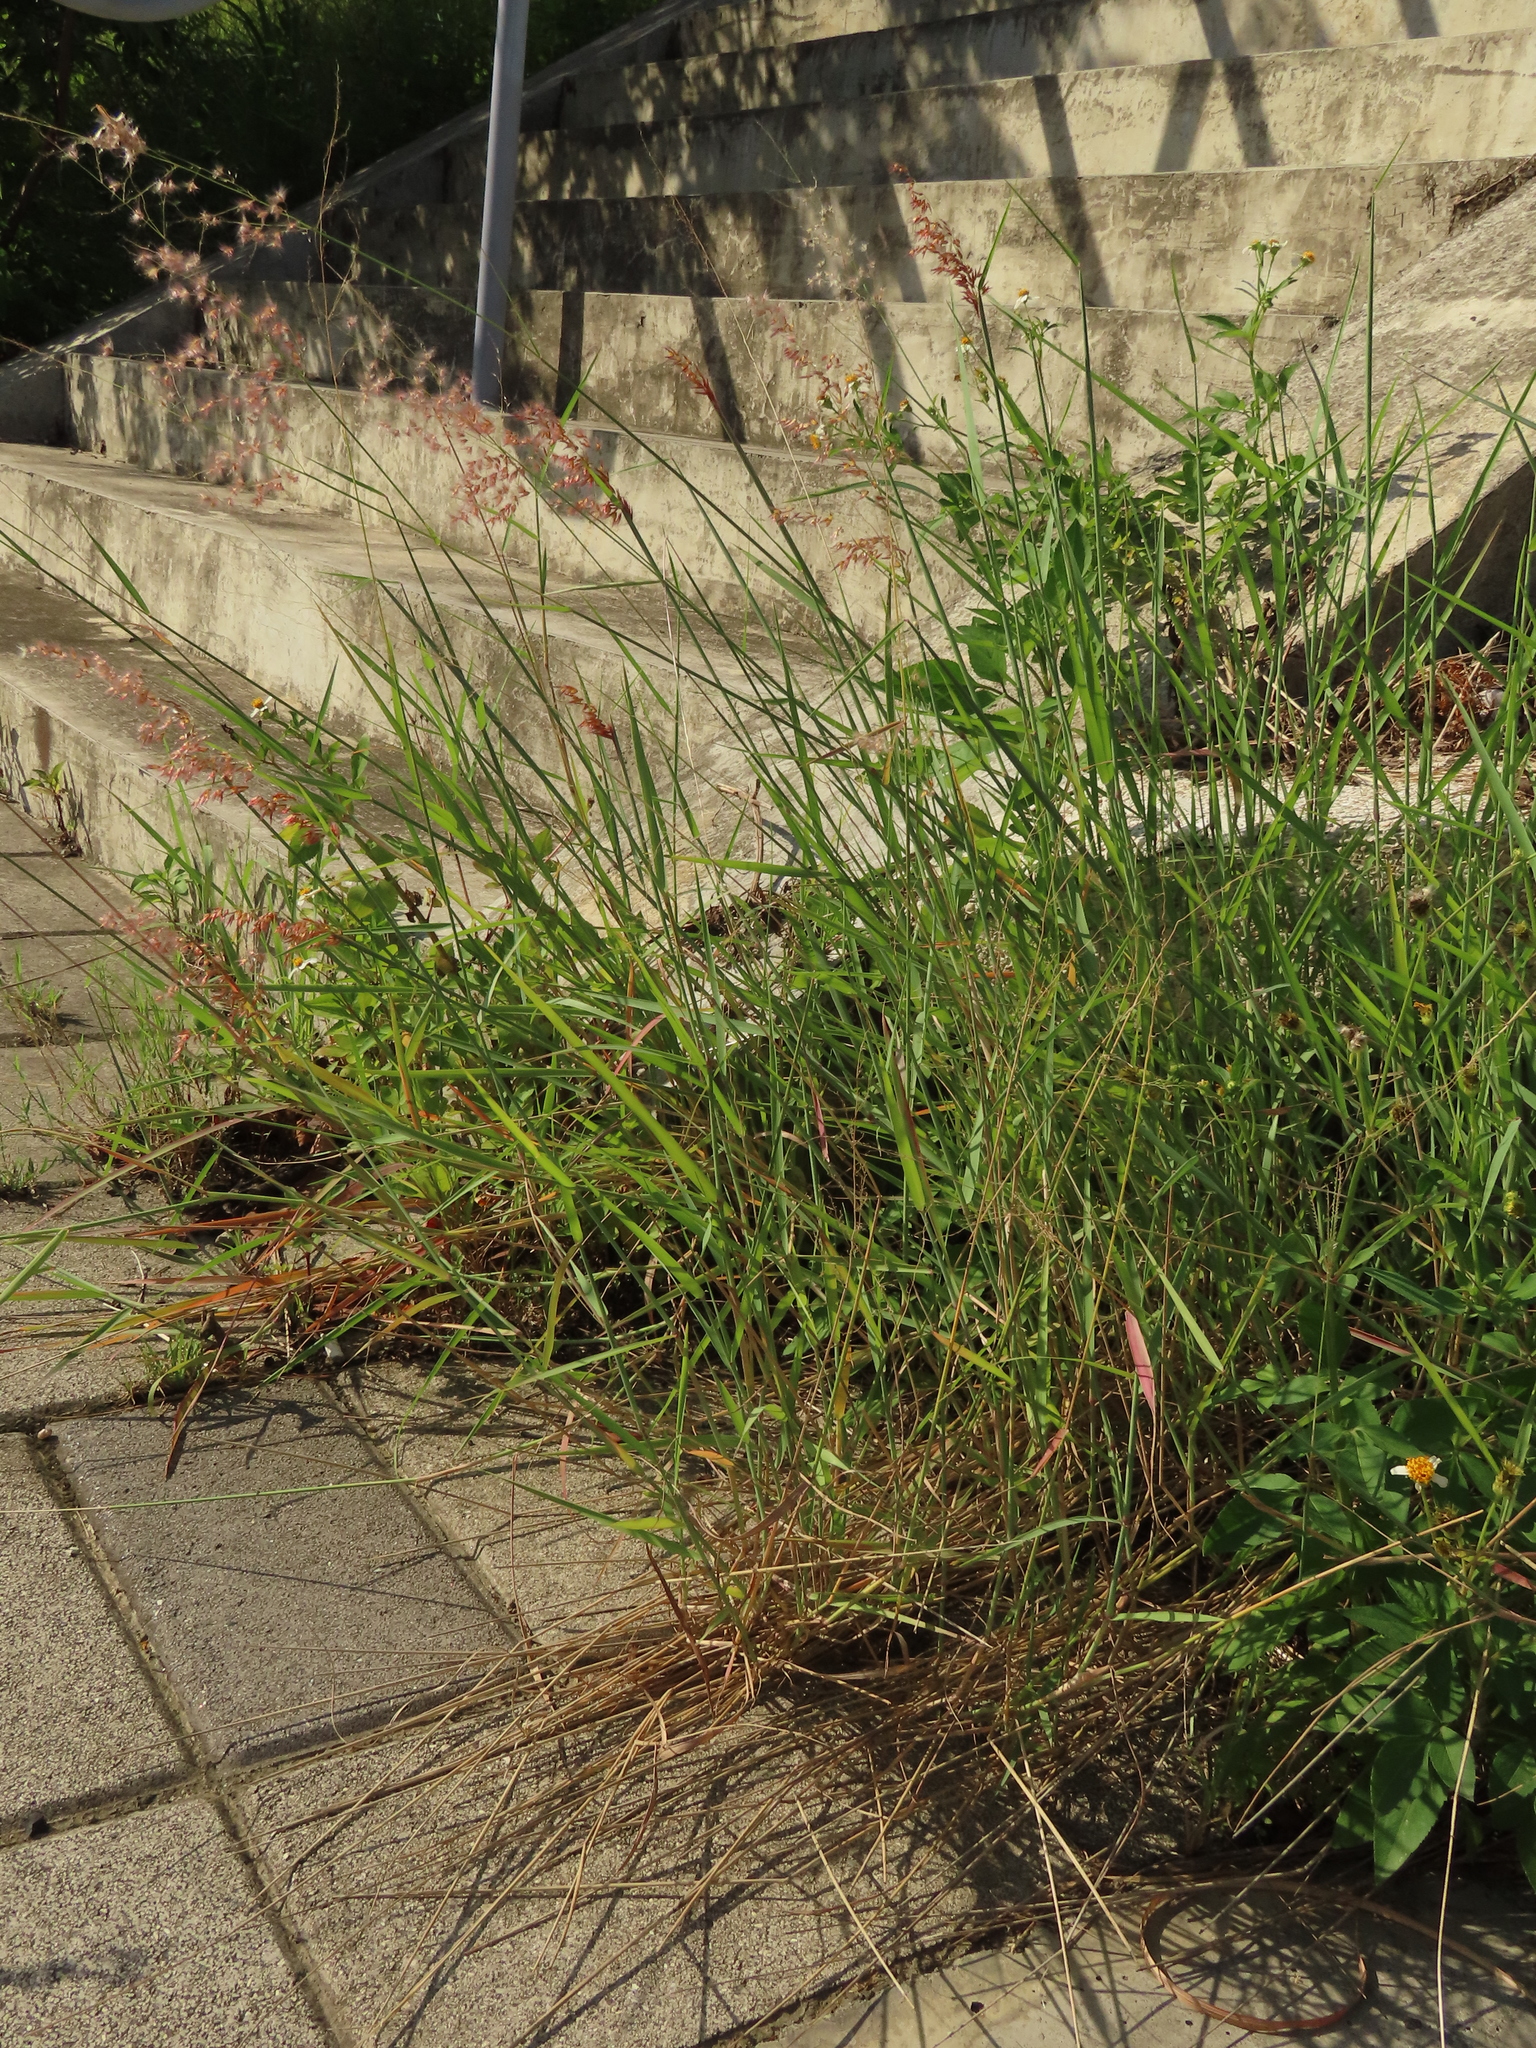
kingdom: Plantae
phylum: Tracheophyta
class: Liliopsida
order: Poales
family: Poaceae
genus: Melinis
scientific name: Melinis repens
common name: Rose natal grass
